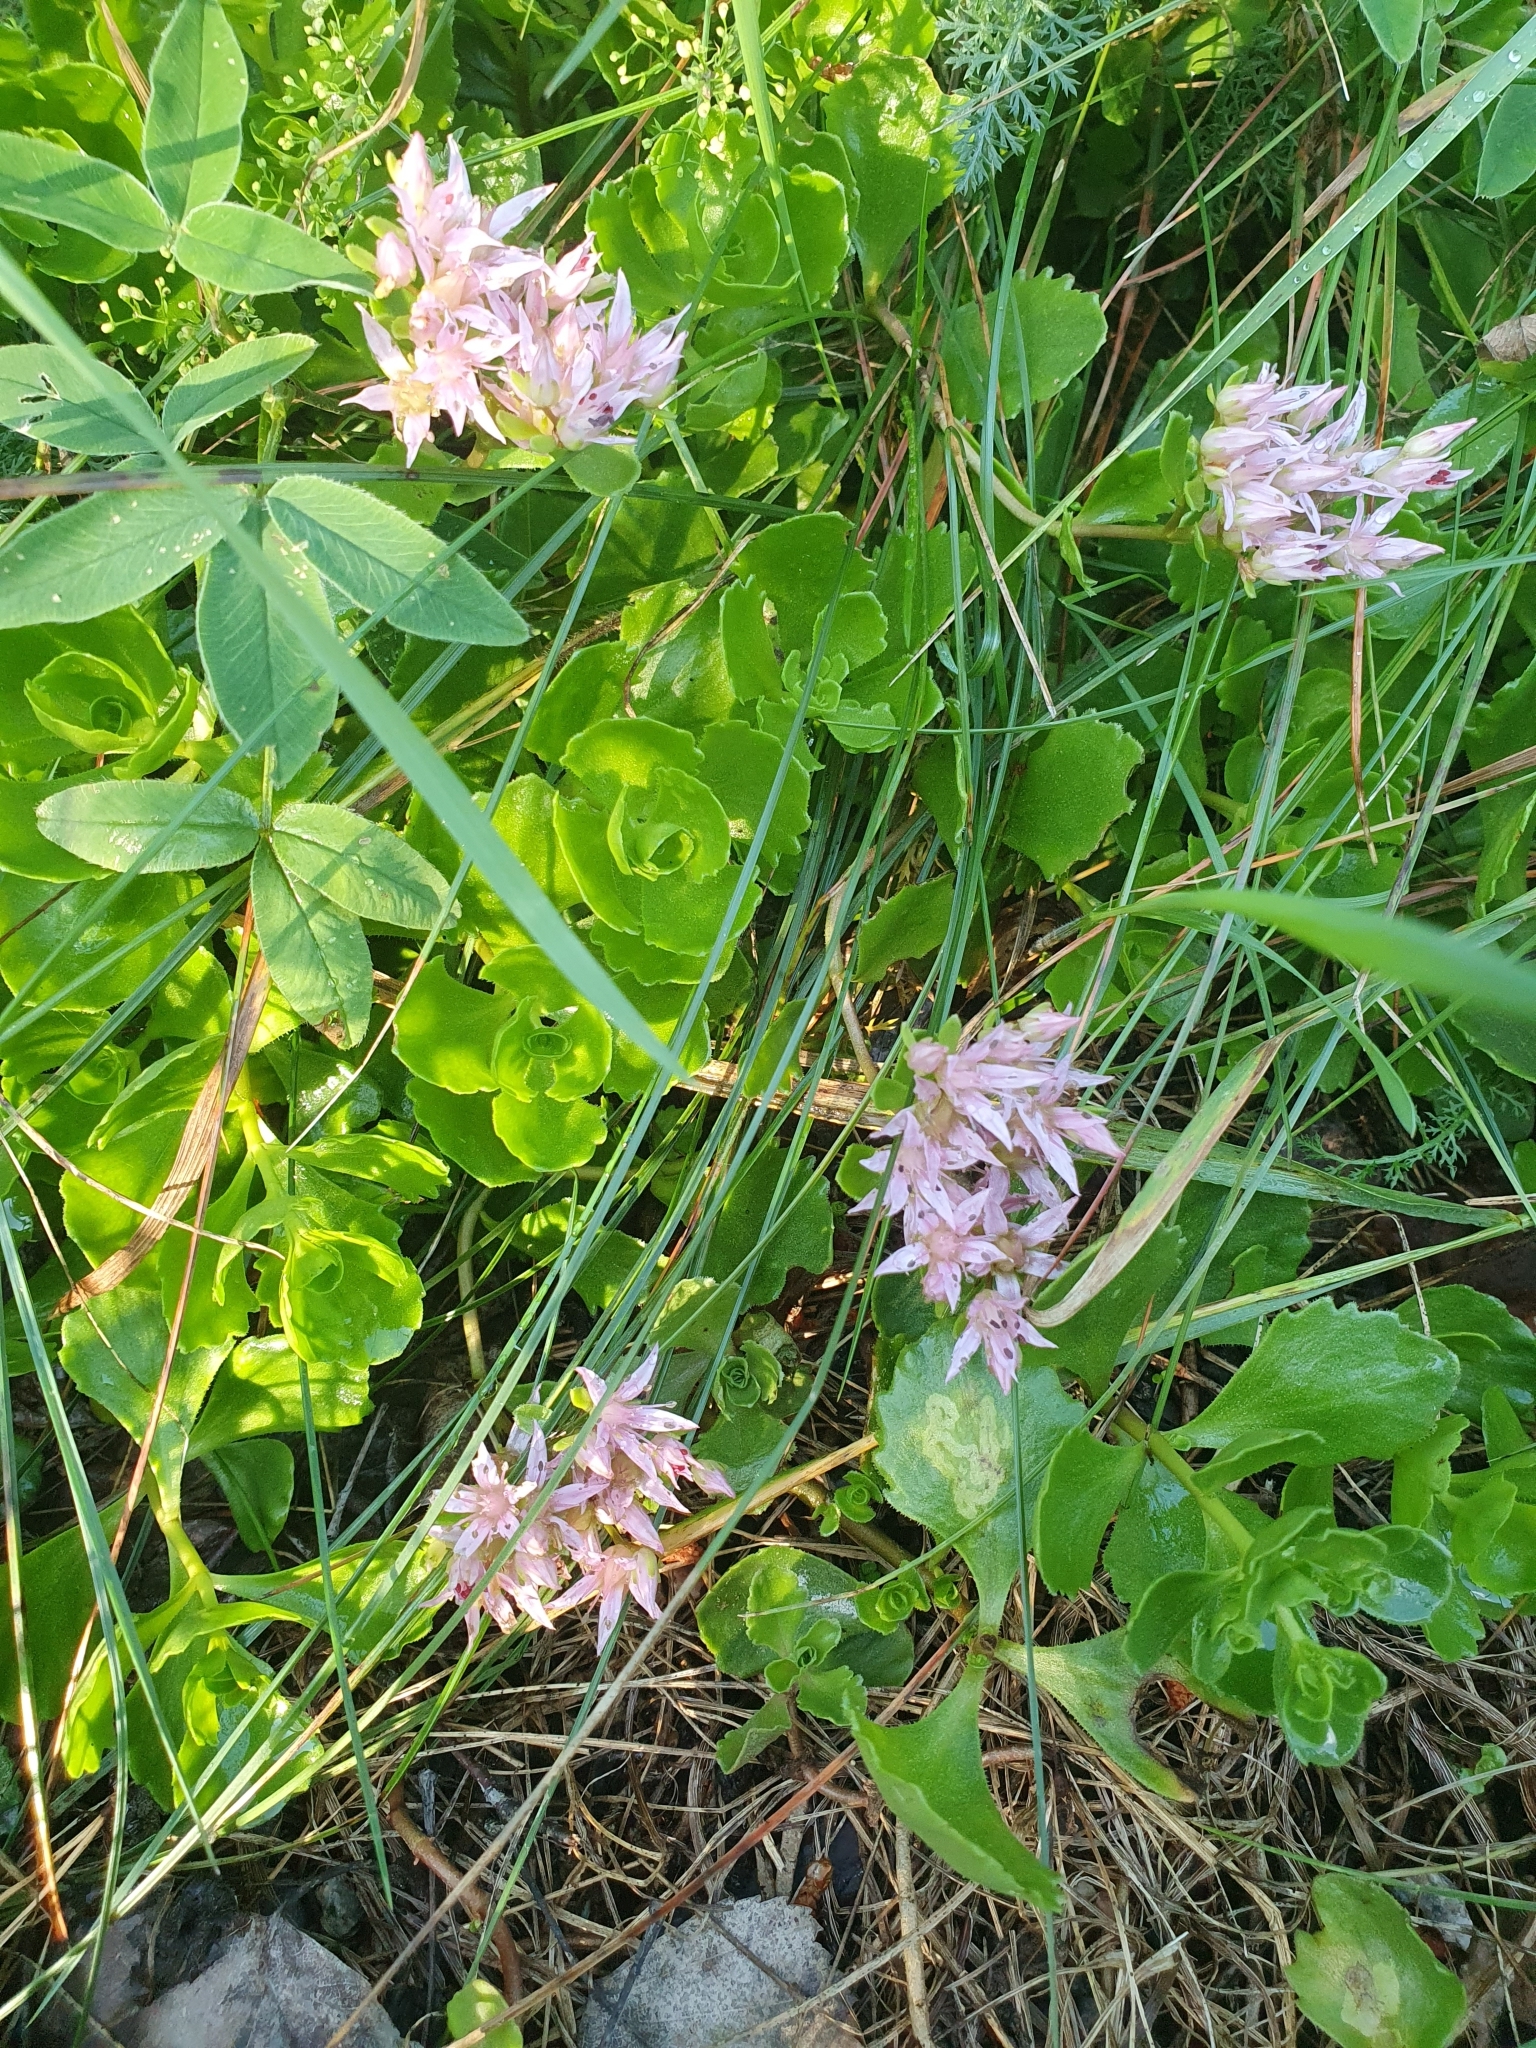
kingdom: Plantae
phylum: Tracheophyta
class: Magnoliopsida
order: Saxifragales
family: Crassulaceae
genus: Phedimus
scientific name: Phedimus spurius
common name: Caucasian stonecrop
